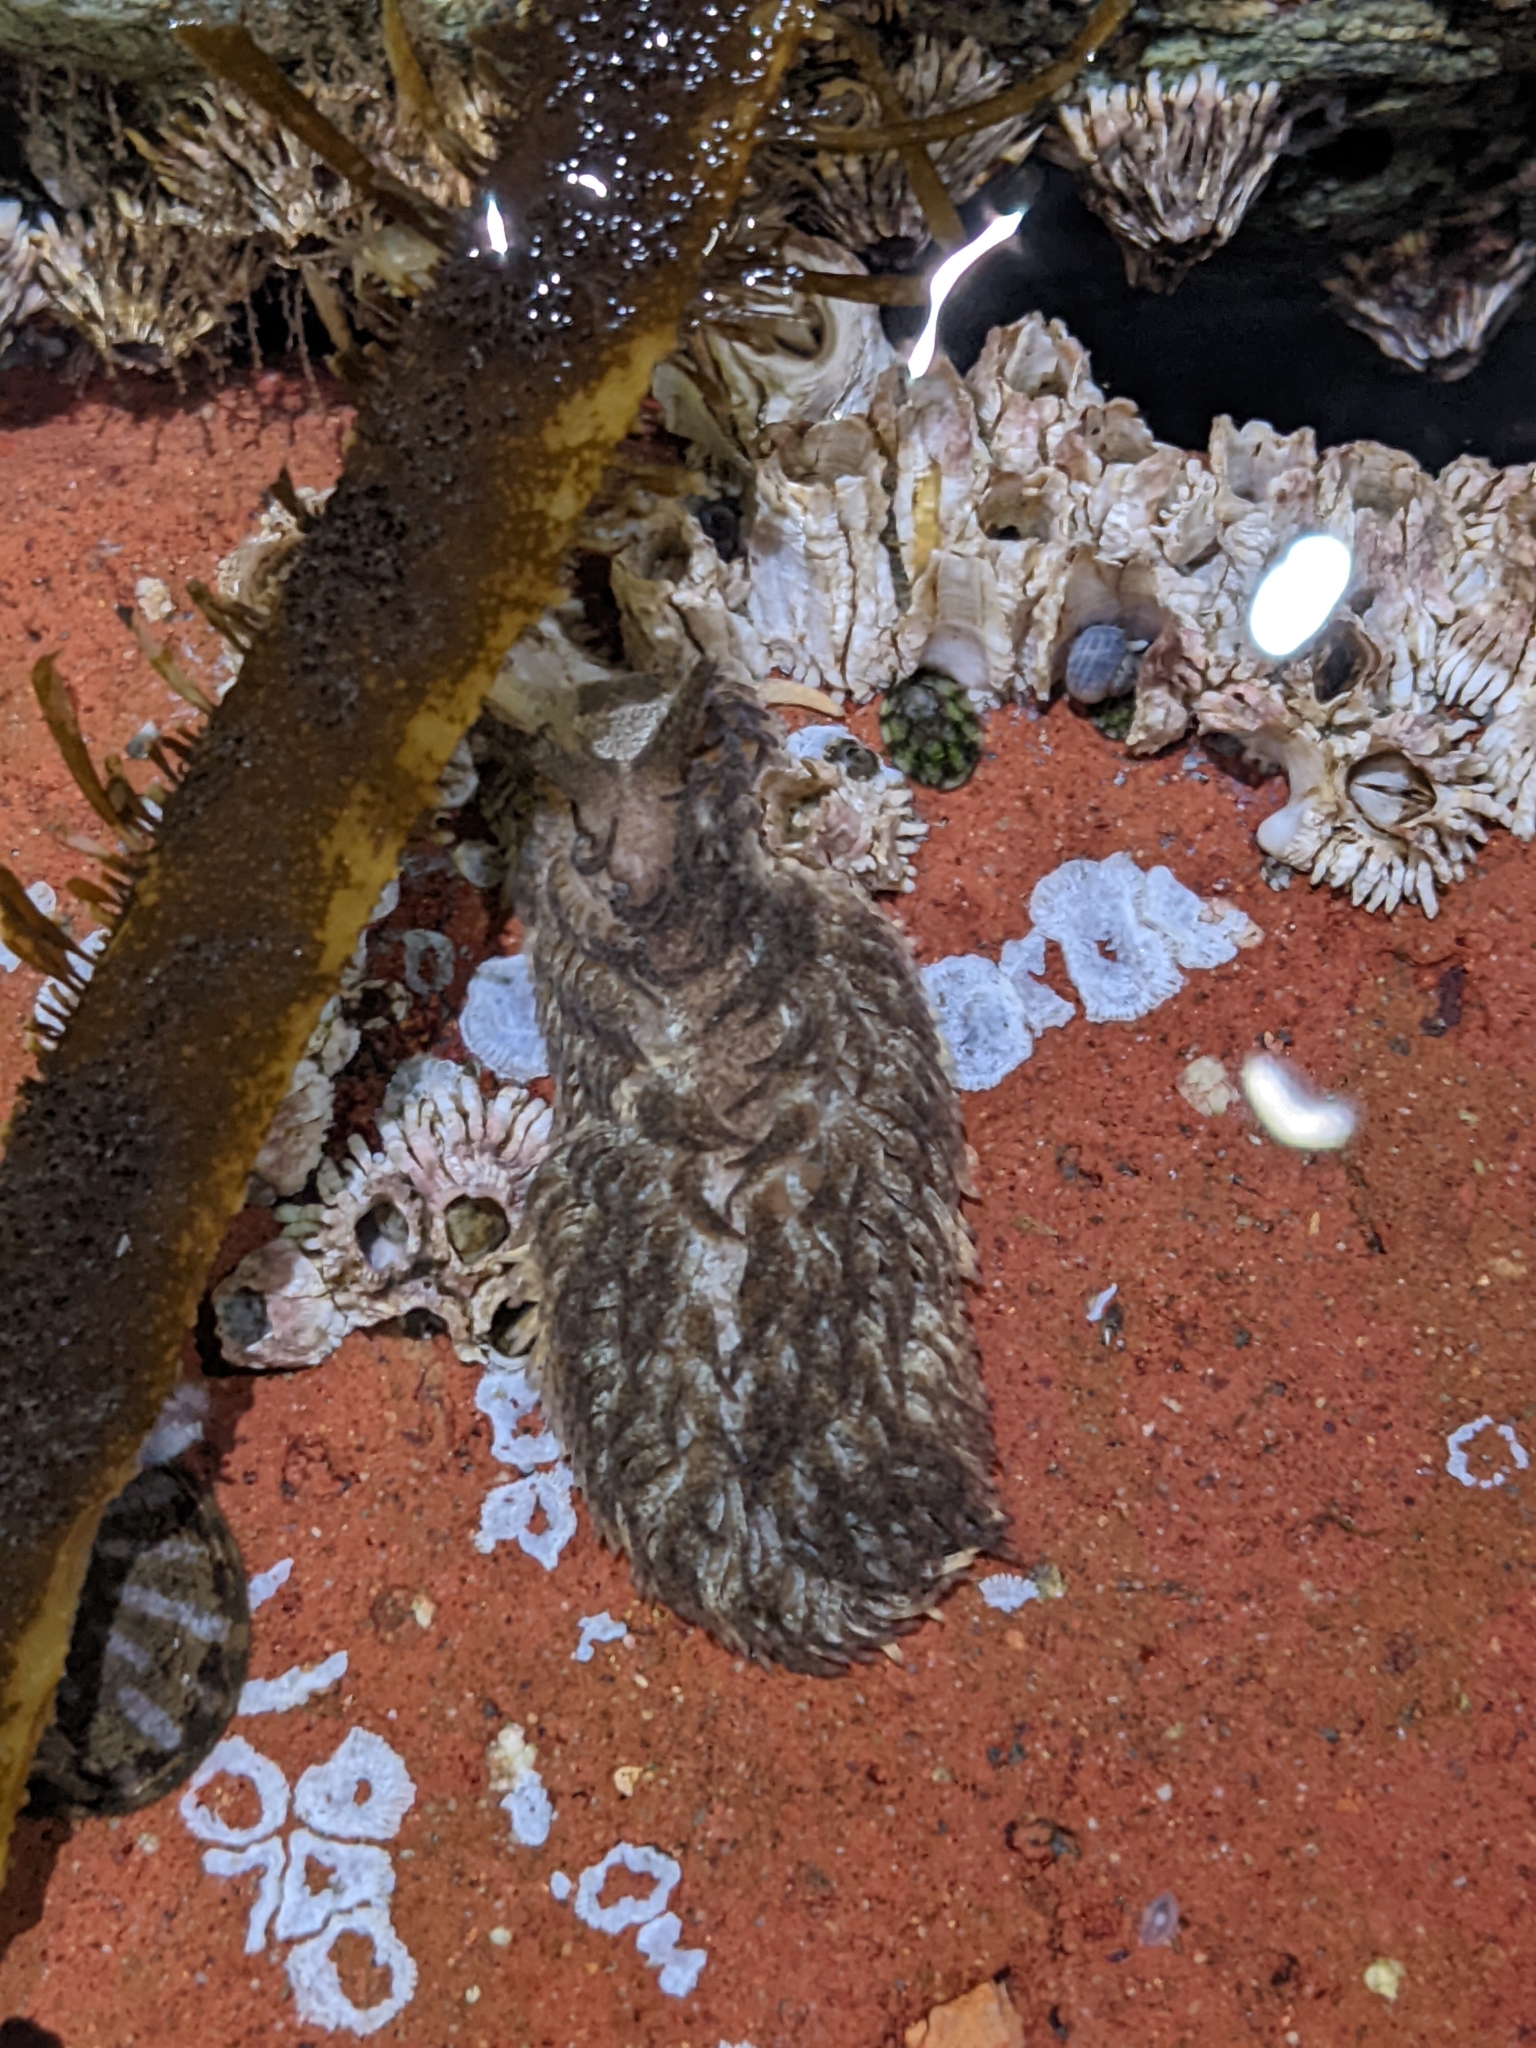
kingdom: Animalia
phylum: Mollusca
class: Gastropoda
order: Nudibranchia
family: Aeolidiidae
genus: Aeolidia
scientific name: Aeolidia papillosa
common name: Common grey sea slug
